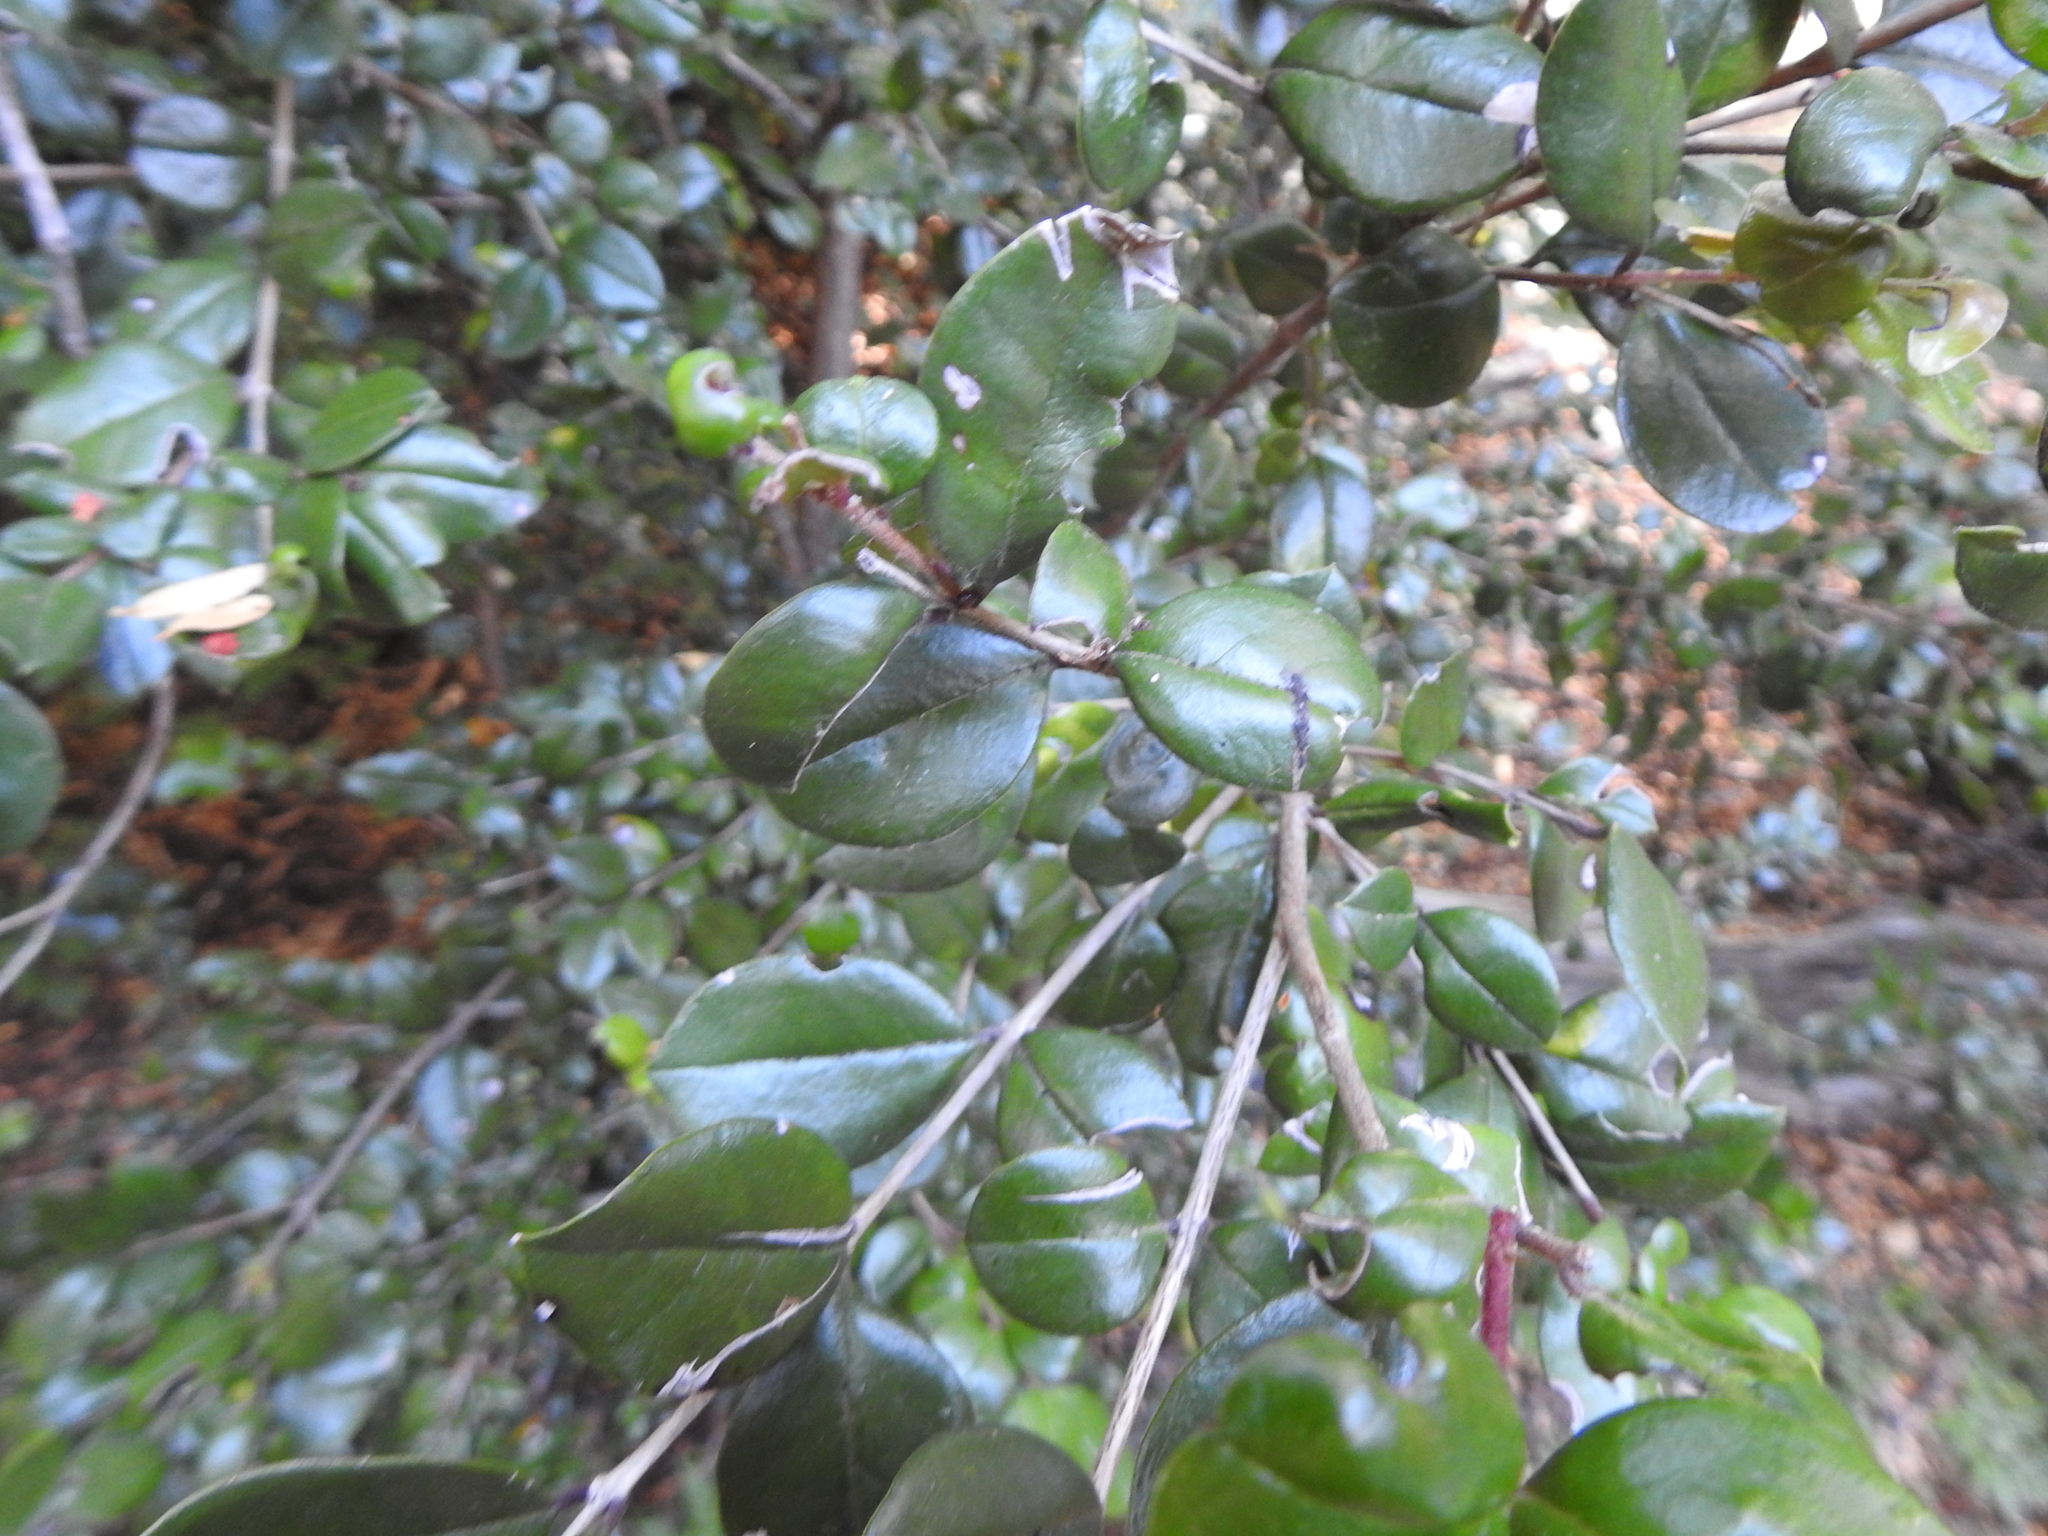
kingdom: Plantae
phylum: Tracheophyta
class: Magnoliopsida
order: Myrtales
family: Myrtaceae
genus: Luma
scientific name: Luma apiculata
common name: Chilean myrtle
